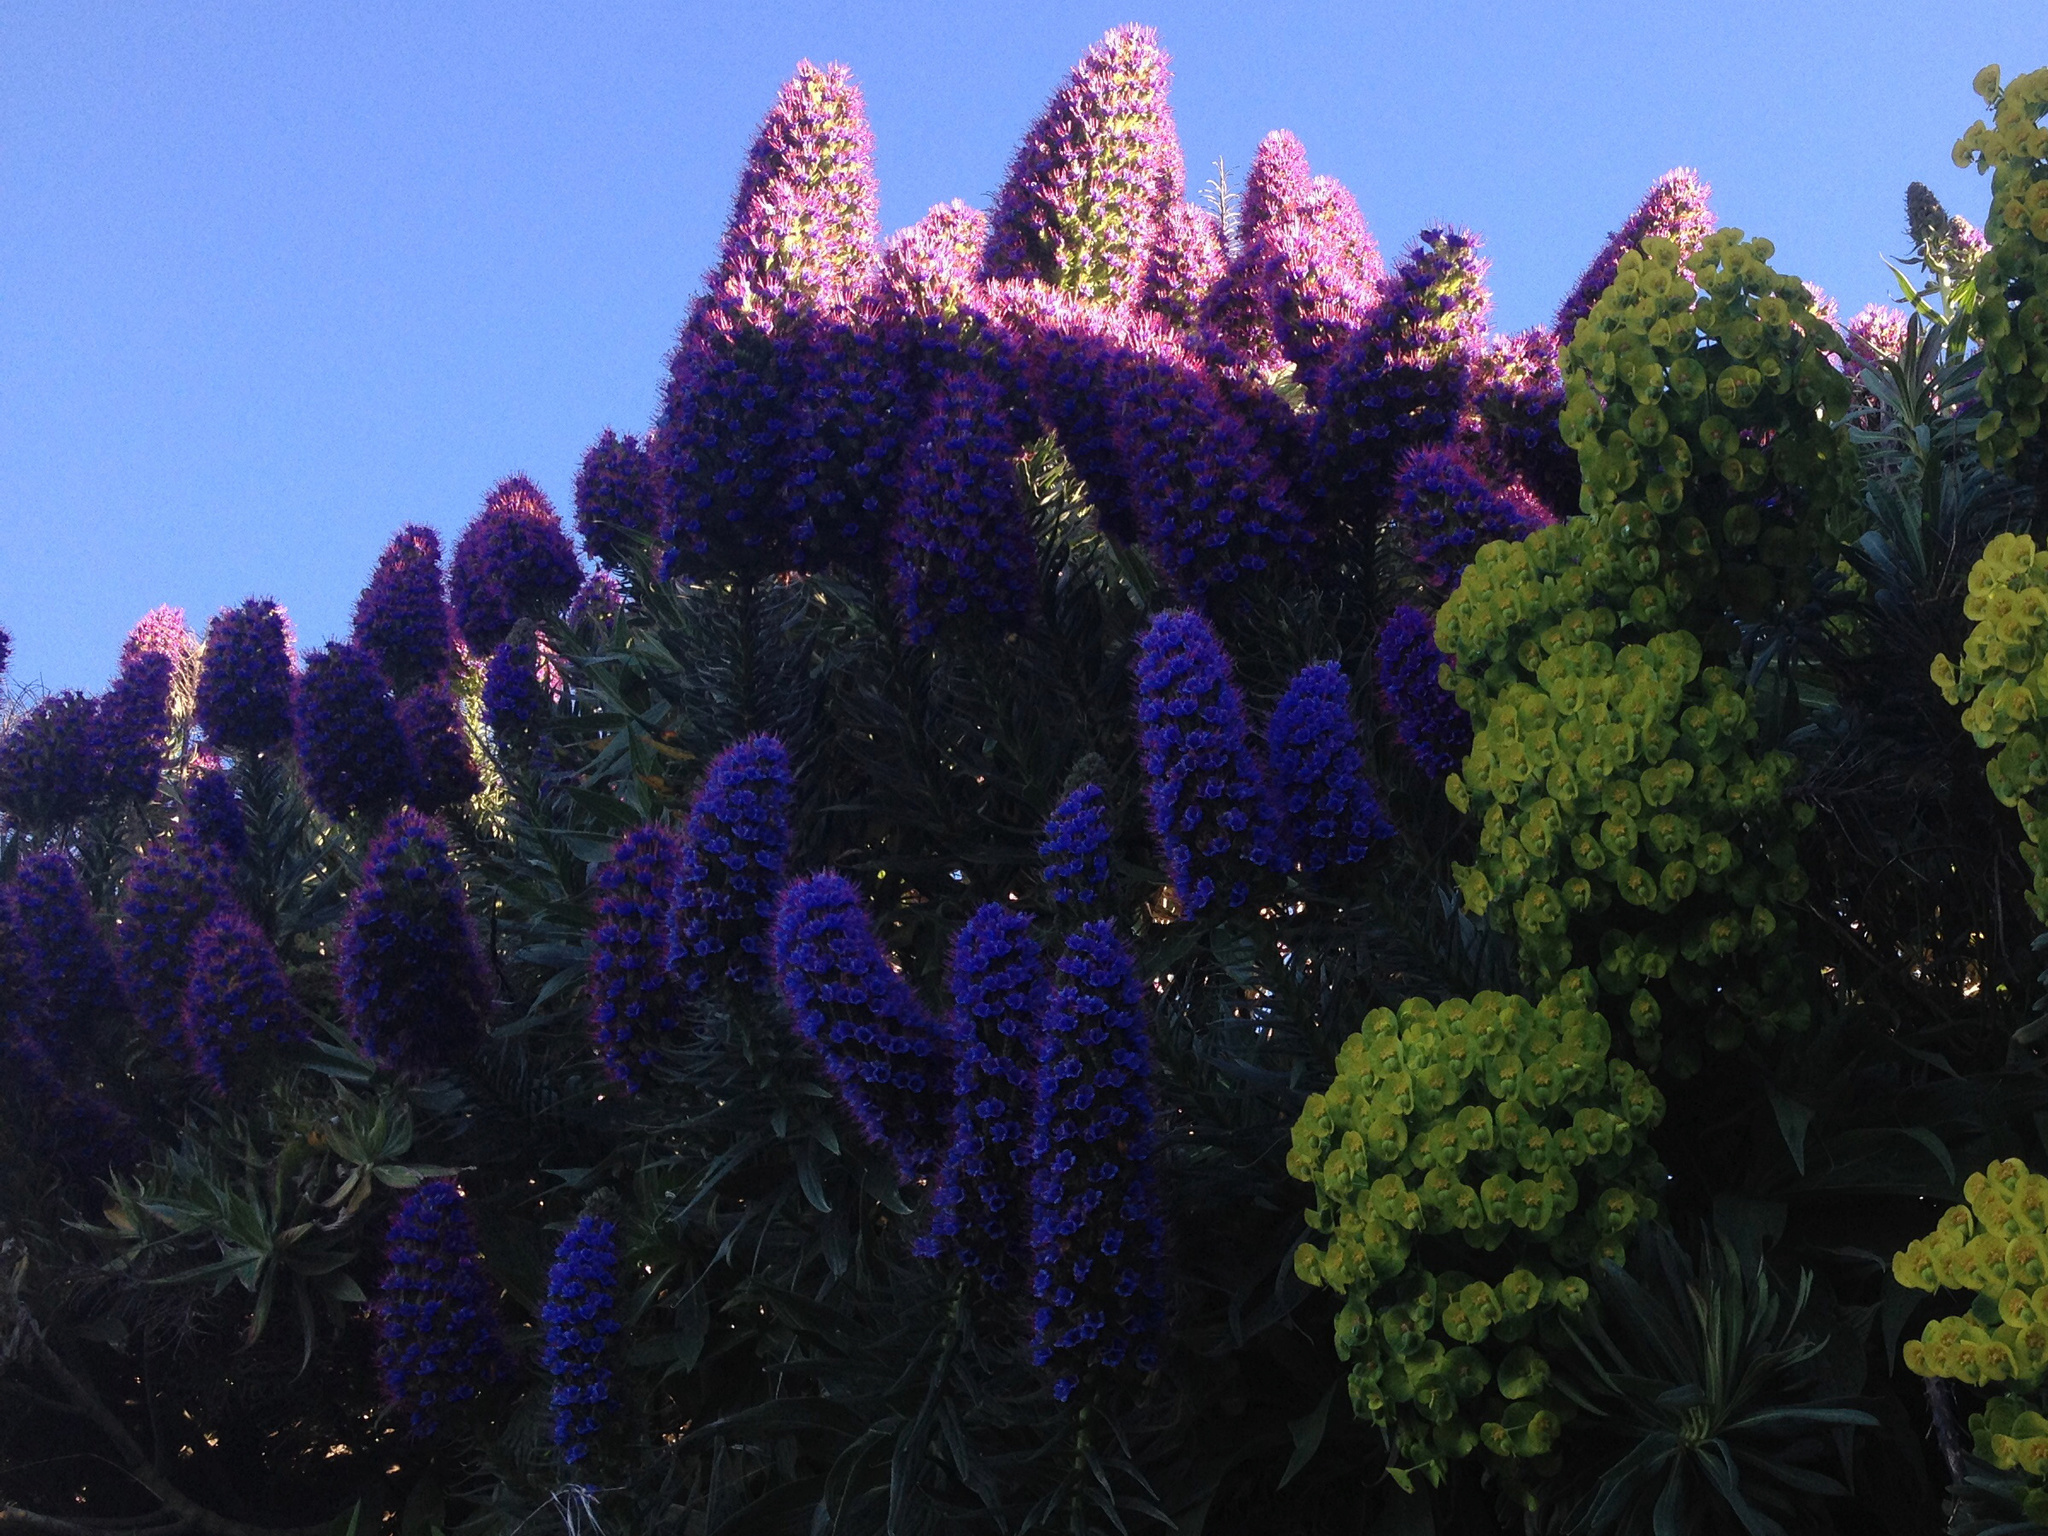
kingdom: Plantae
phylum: Tracheophyta
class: Magnoliopsida
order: Boraginales
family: Boraginaceae
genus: Echium
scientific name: Echium candicans
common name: Pride of madeira
